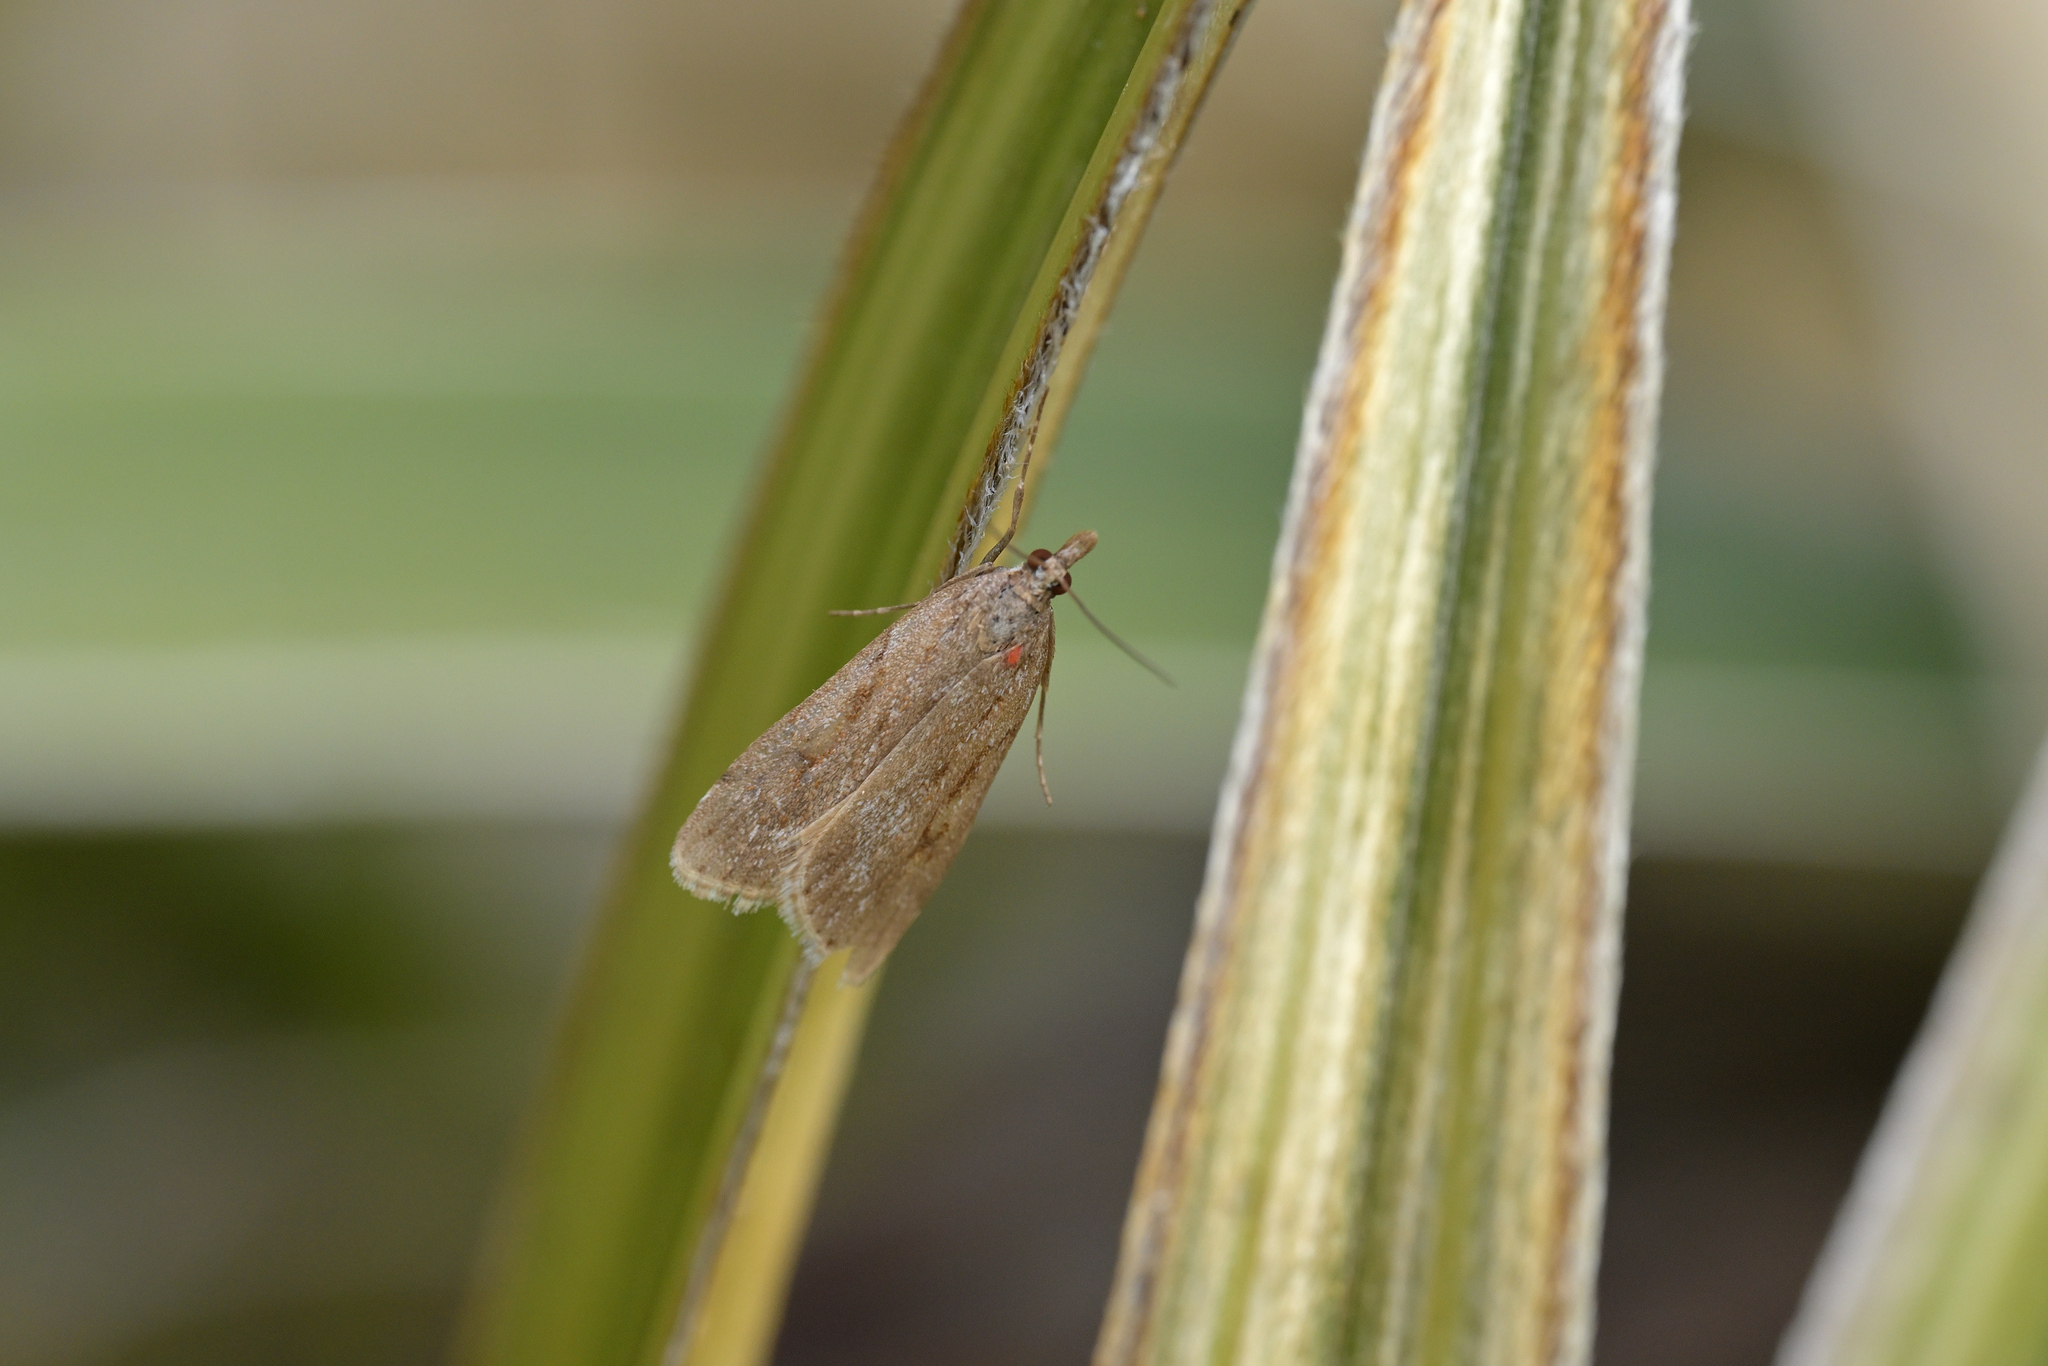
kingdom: Animalia
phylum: Arthropoda
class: Insecta
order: Lepidoptera
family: Crambidae
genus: Scoparia
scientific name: Scoparia illota
